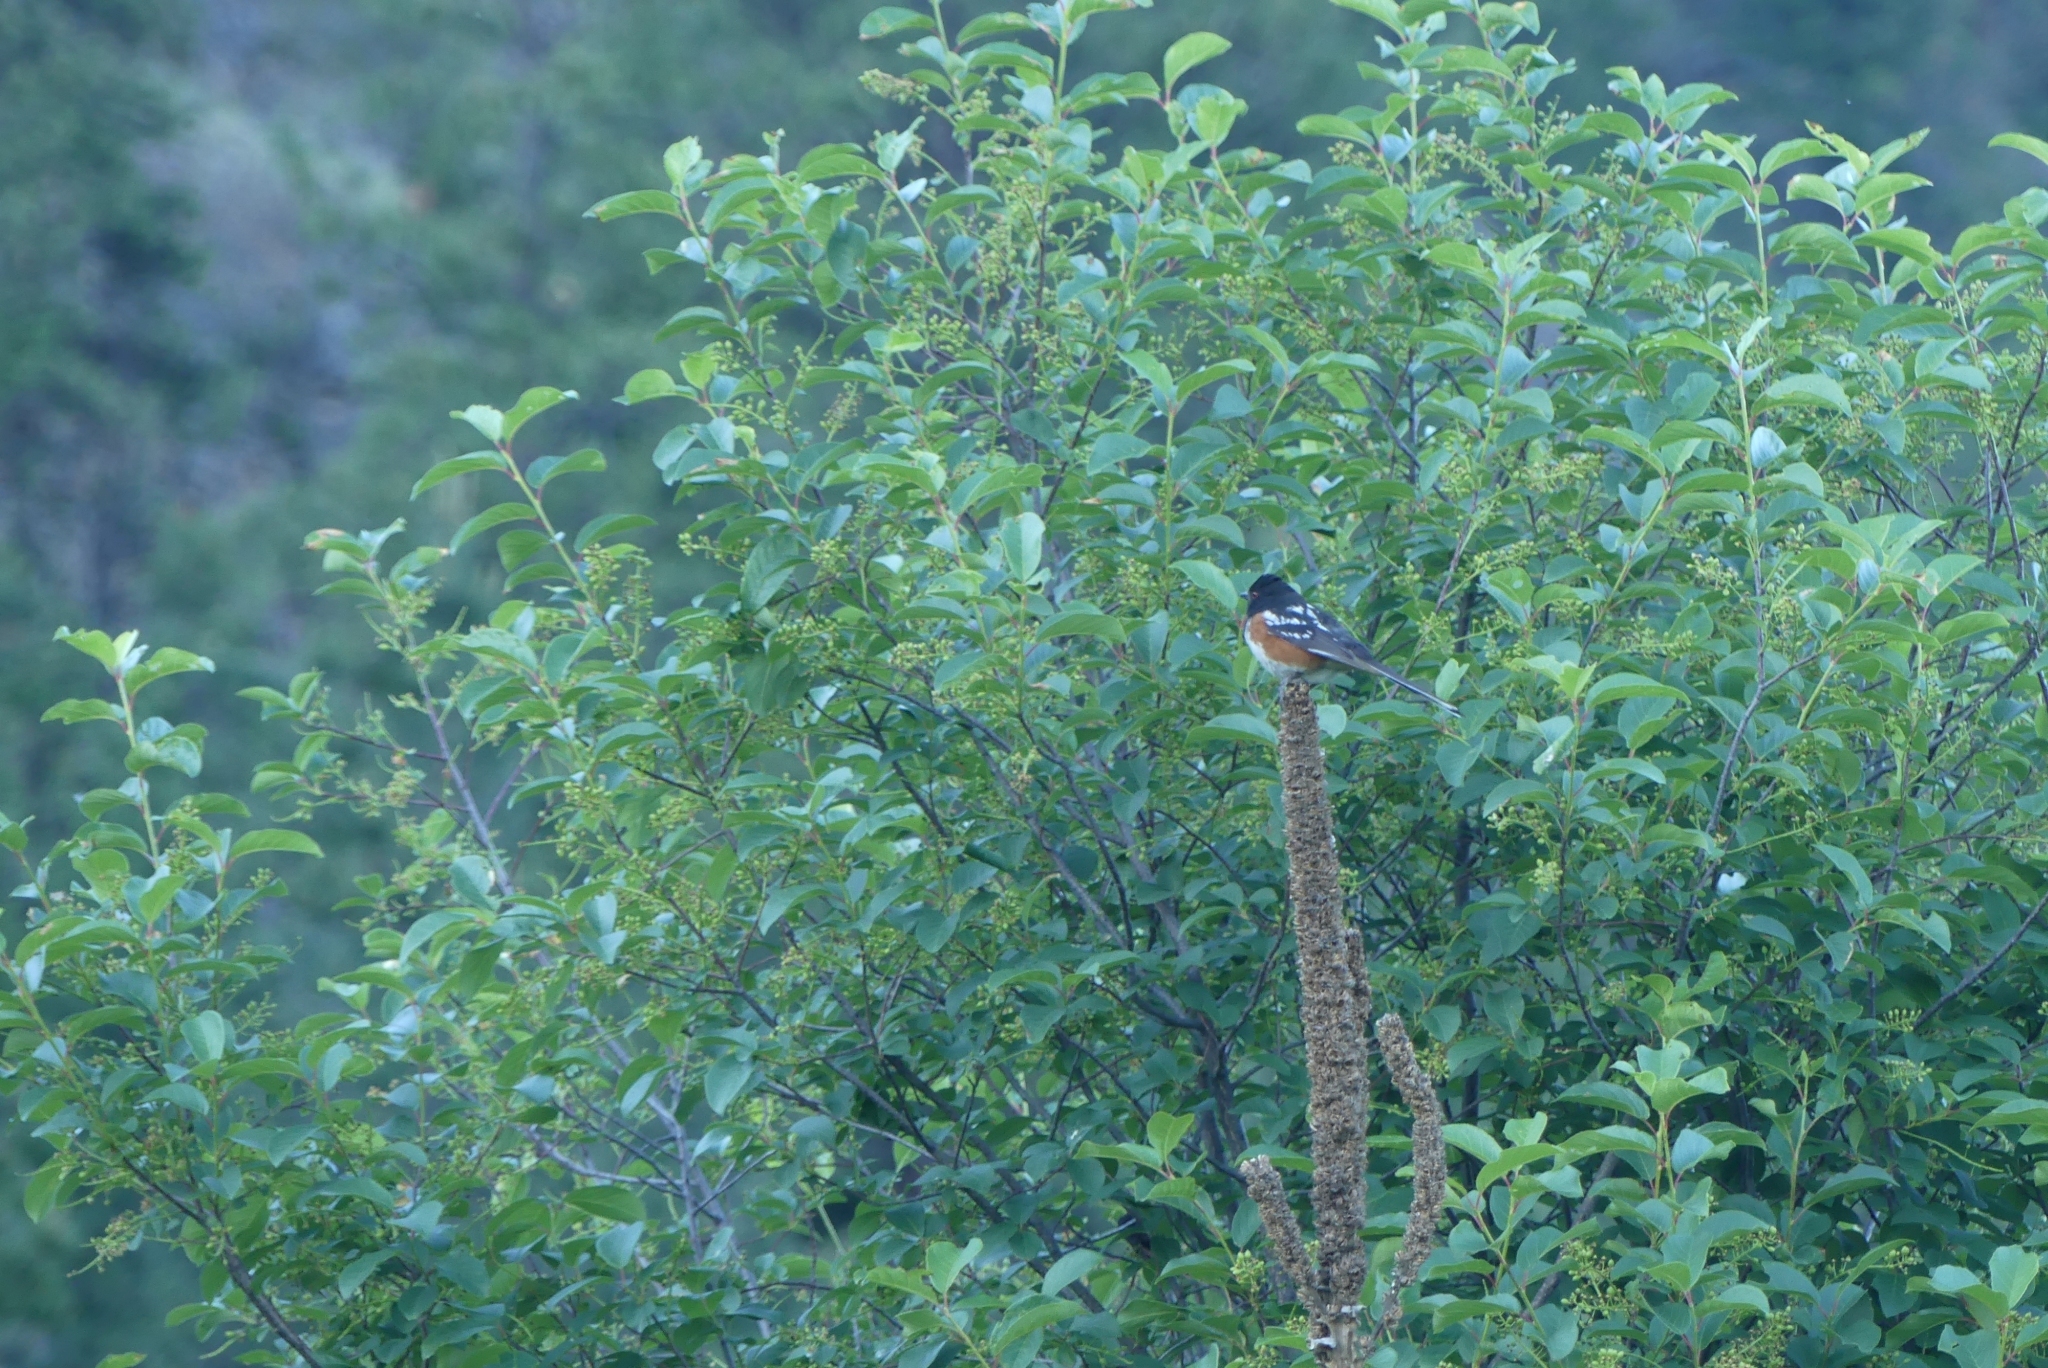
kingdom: Animalia
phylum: Chordata
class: Aves
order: Passeriformes
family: Passerellidae
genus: Pipilo
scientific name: Pipilo maculatus
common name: Spotted towhee
